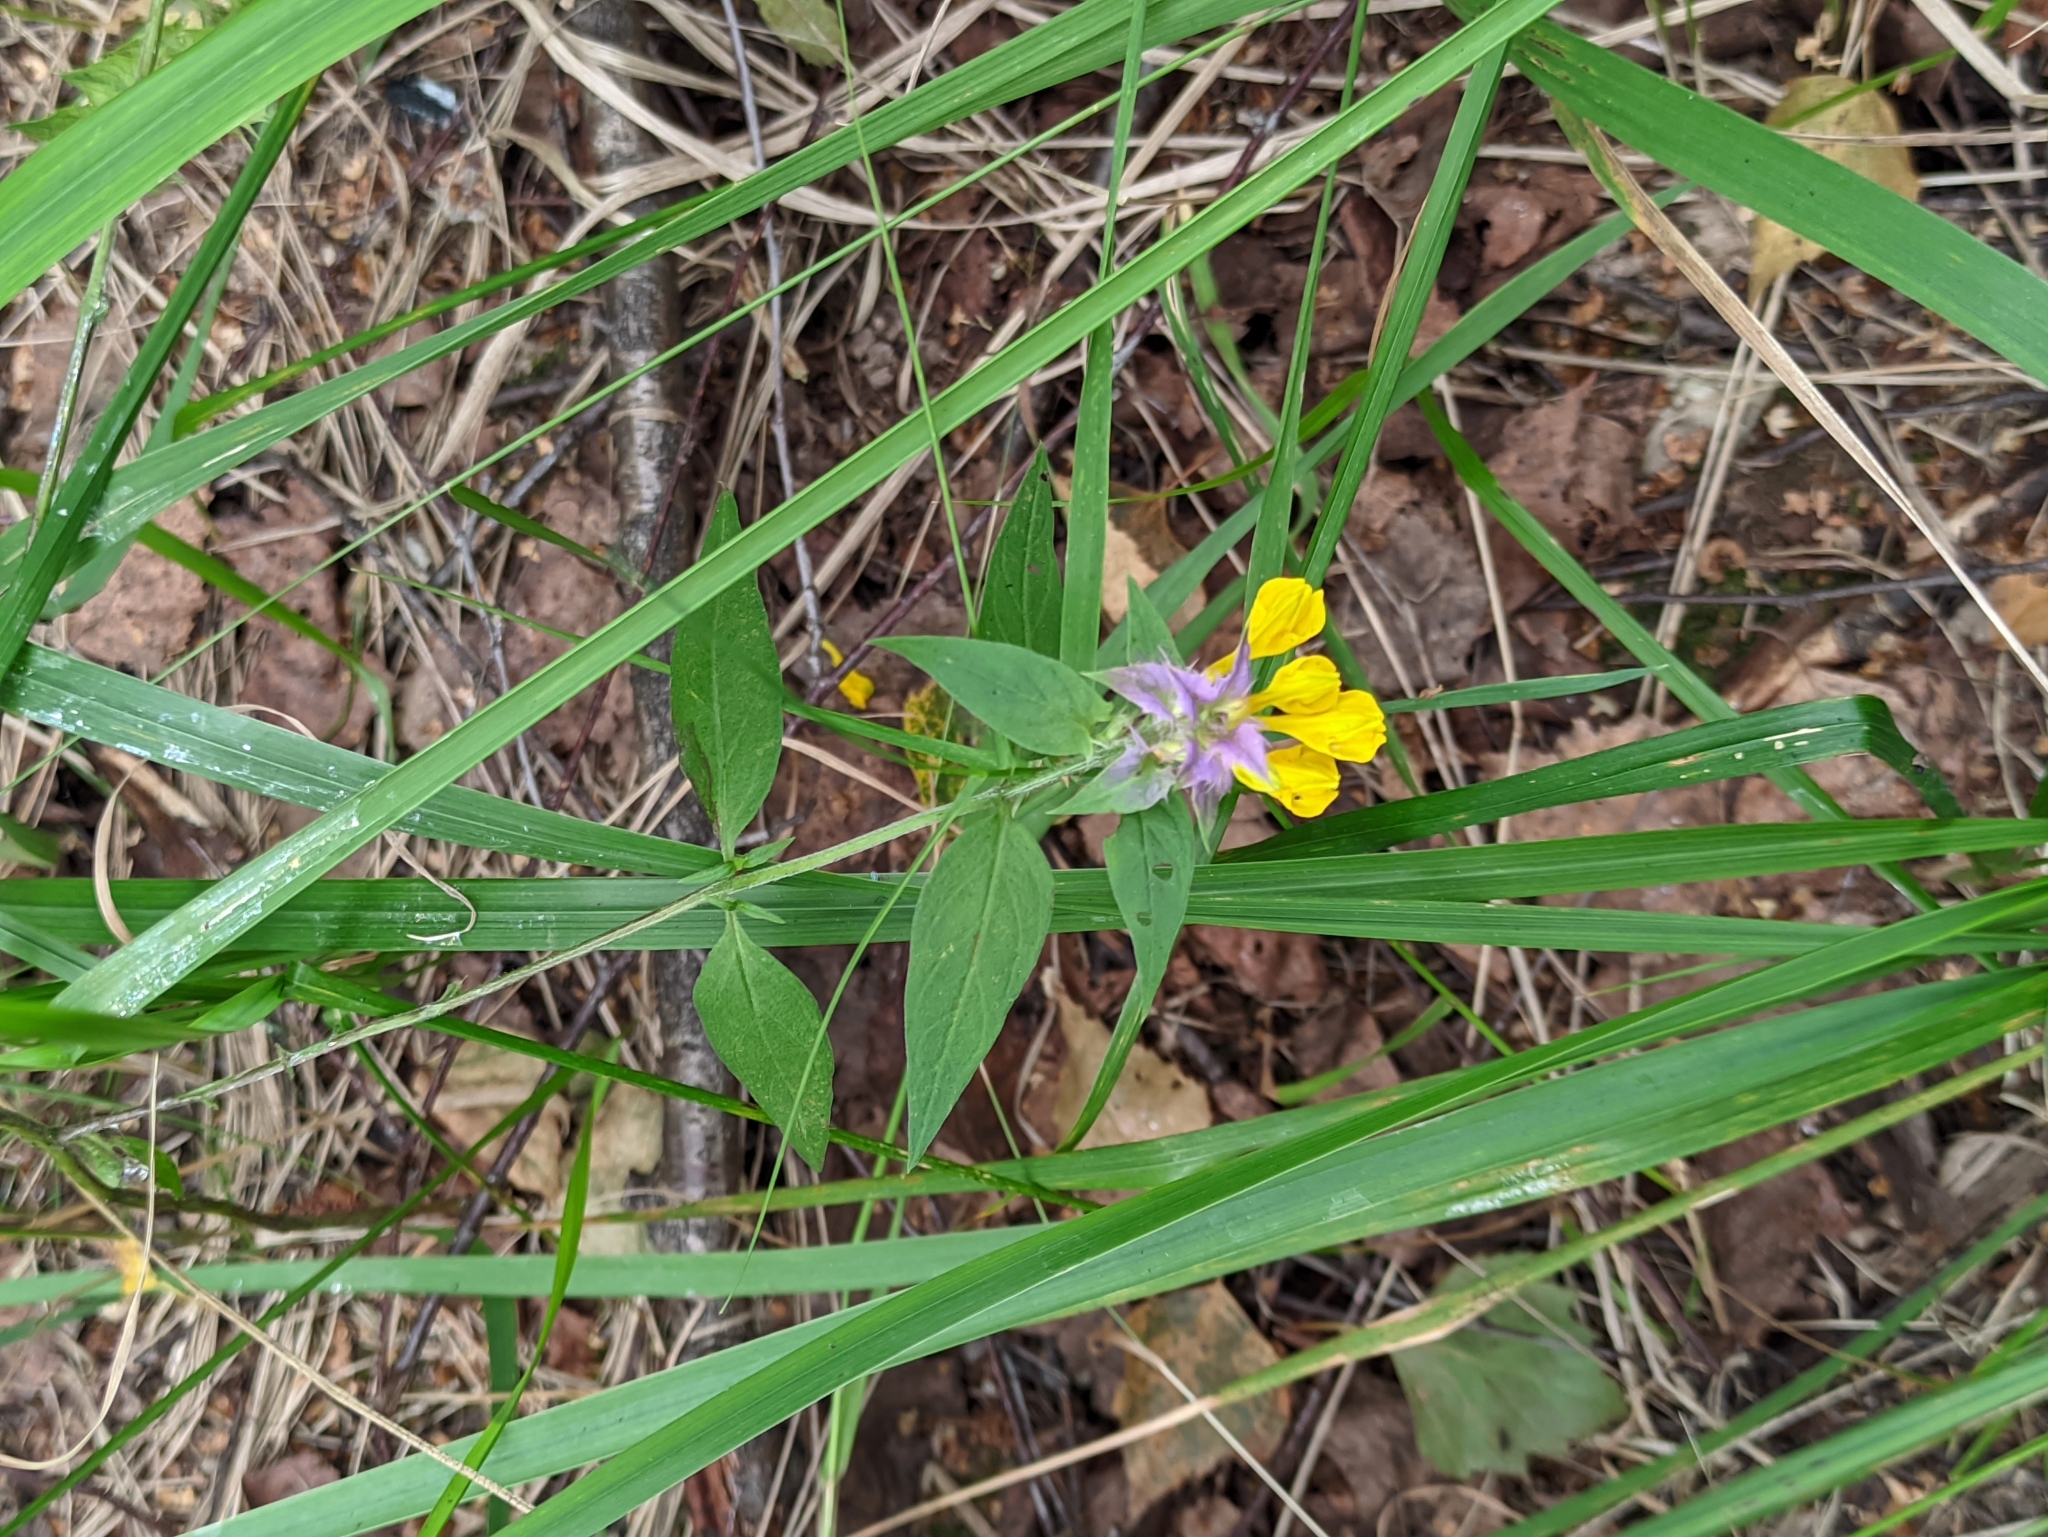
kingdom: Plantae
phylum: Tracheophyta
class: Magnoliopsida
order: Lamiales
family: Orobanchaceae
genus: Melampyrum
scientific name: Melampyrum nemorosum
